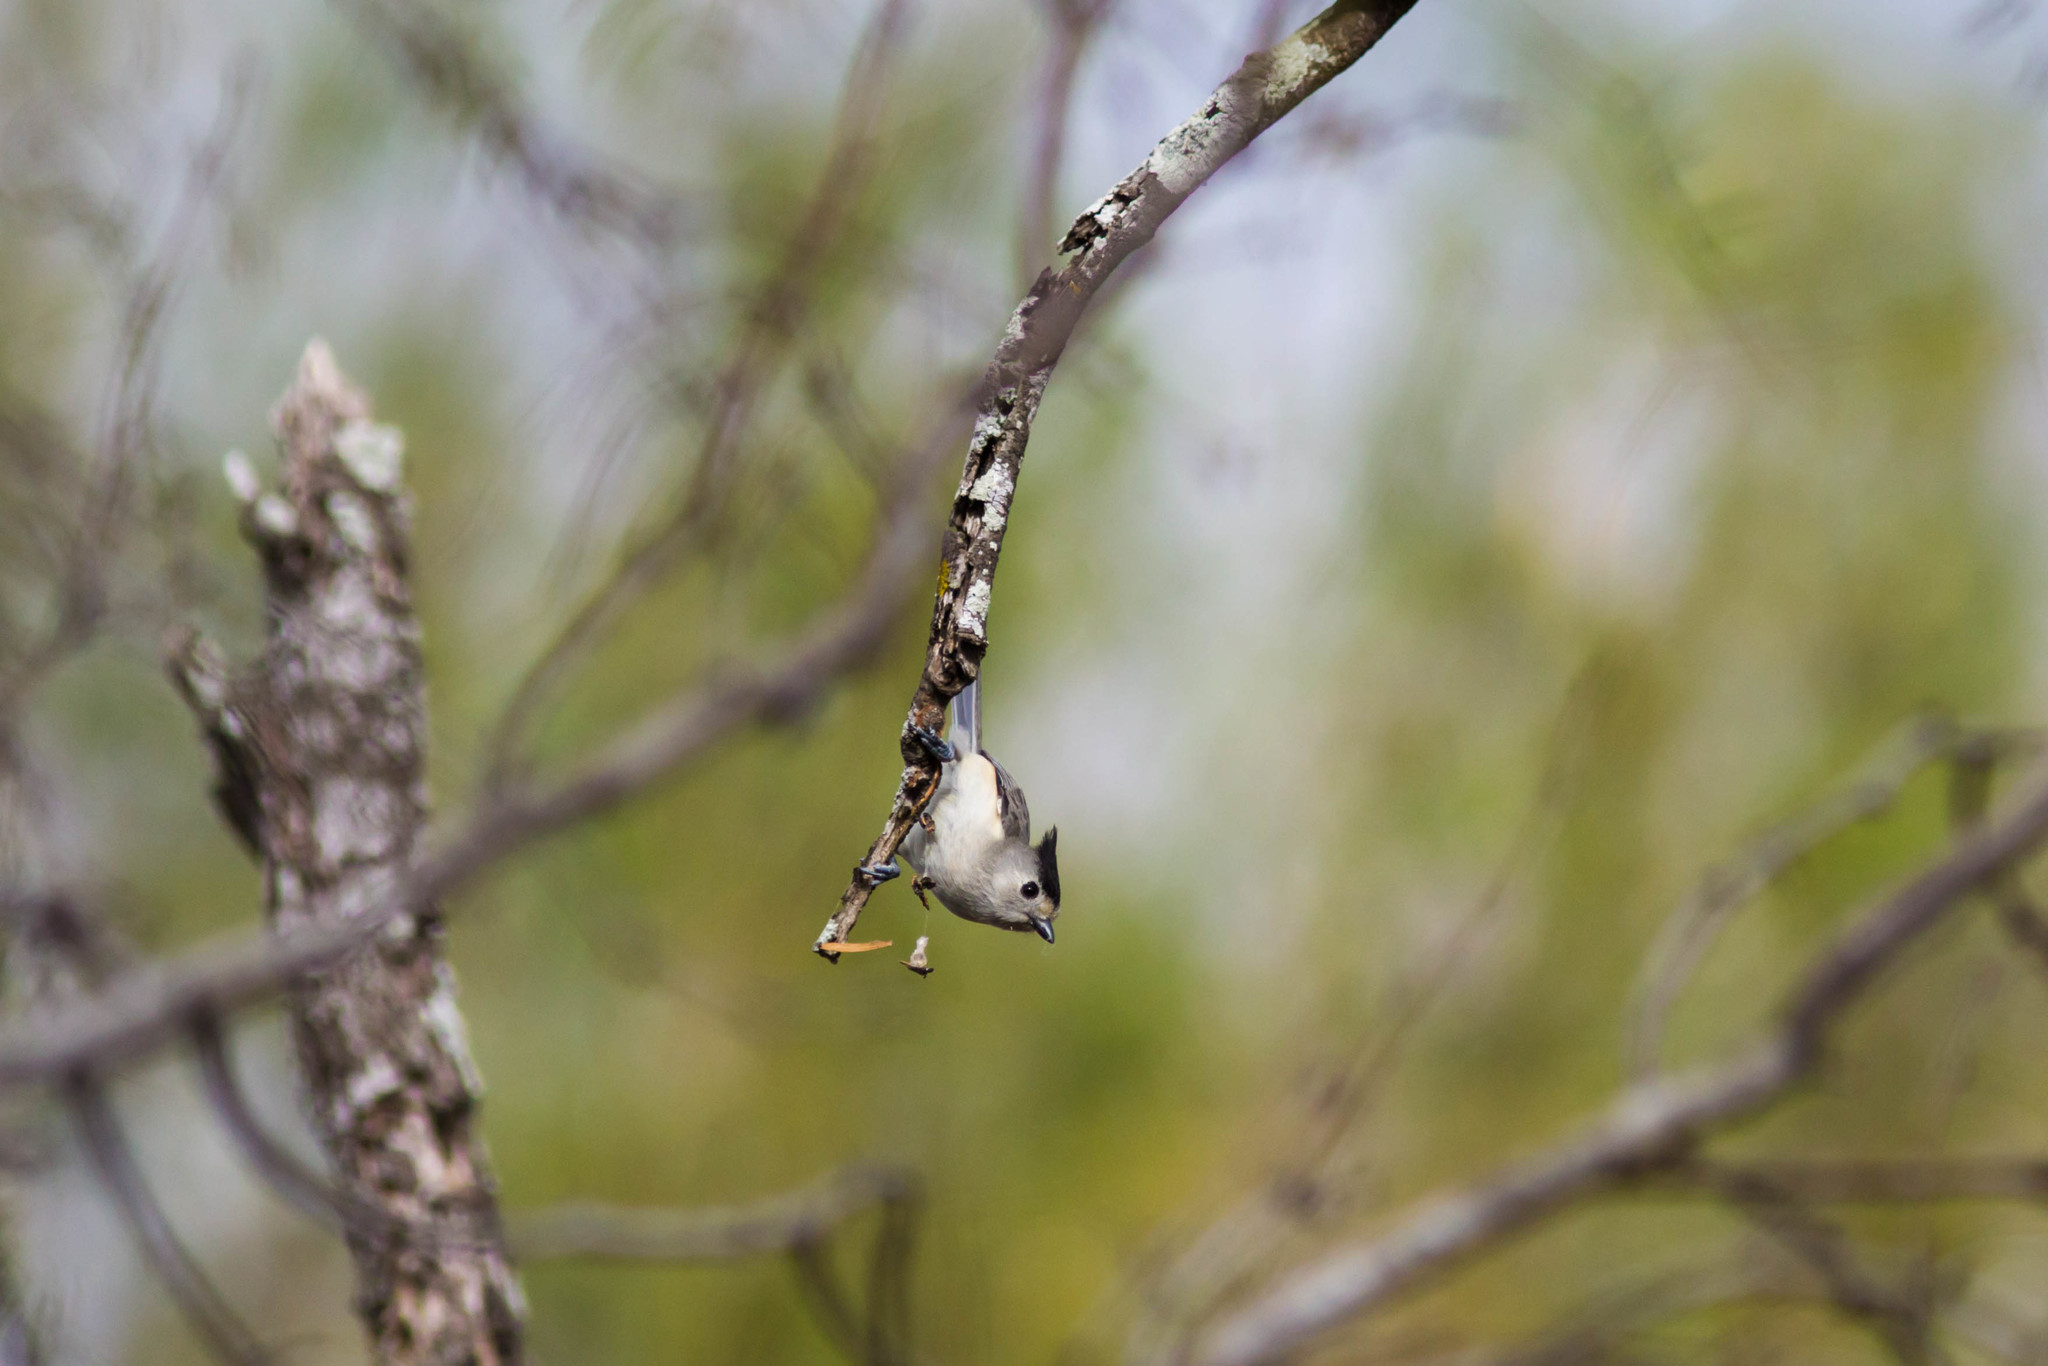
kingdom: Animalia
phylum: Chordata
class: Aves
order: Passeriformes
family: Paridae
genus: Baeolophus
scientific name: Baeolophus atricristatus
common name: Black-crested titmouse
